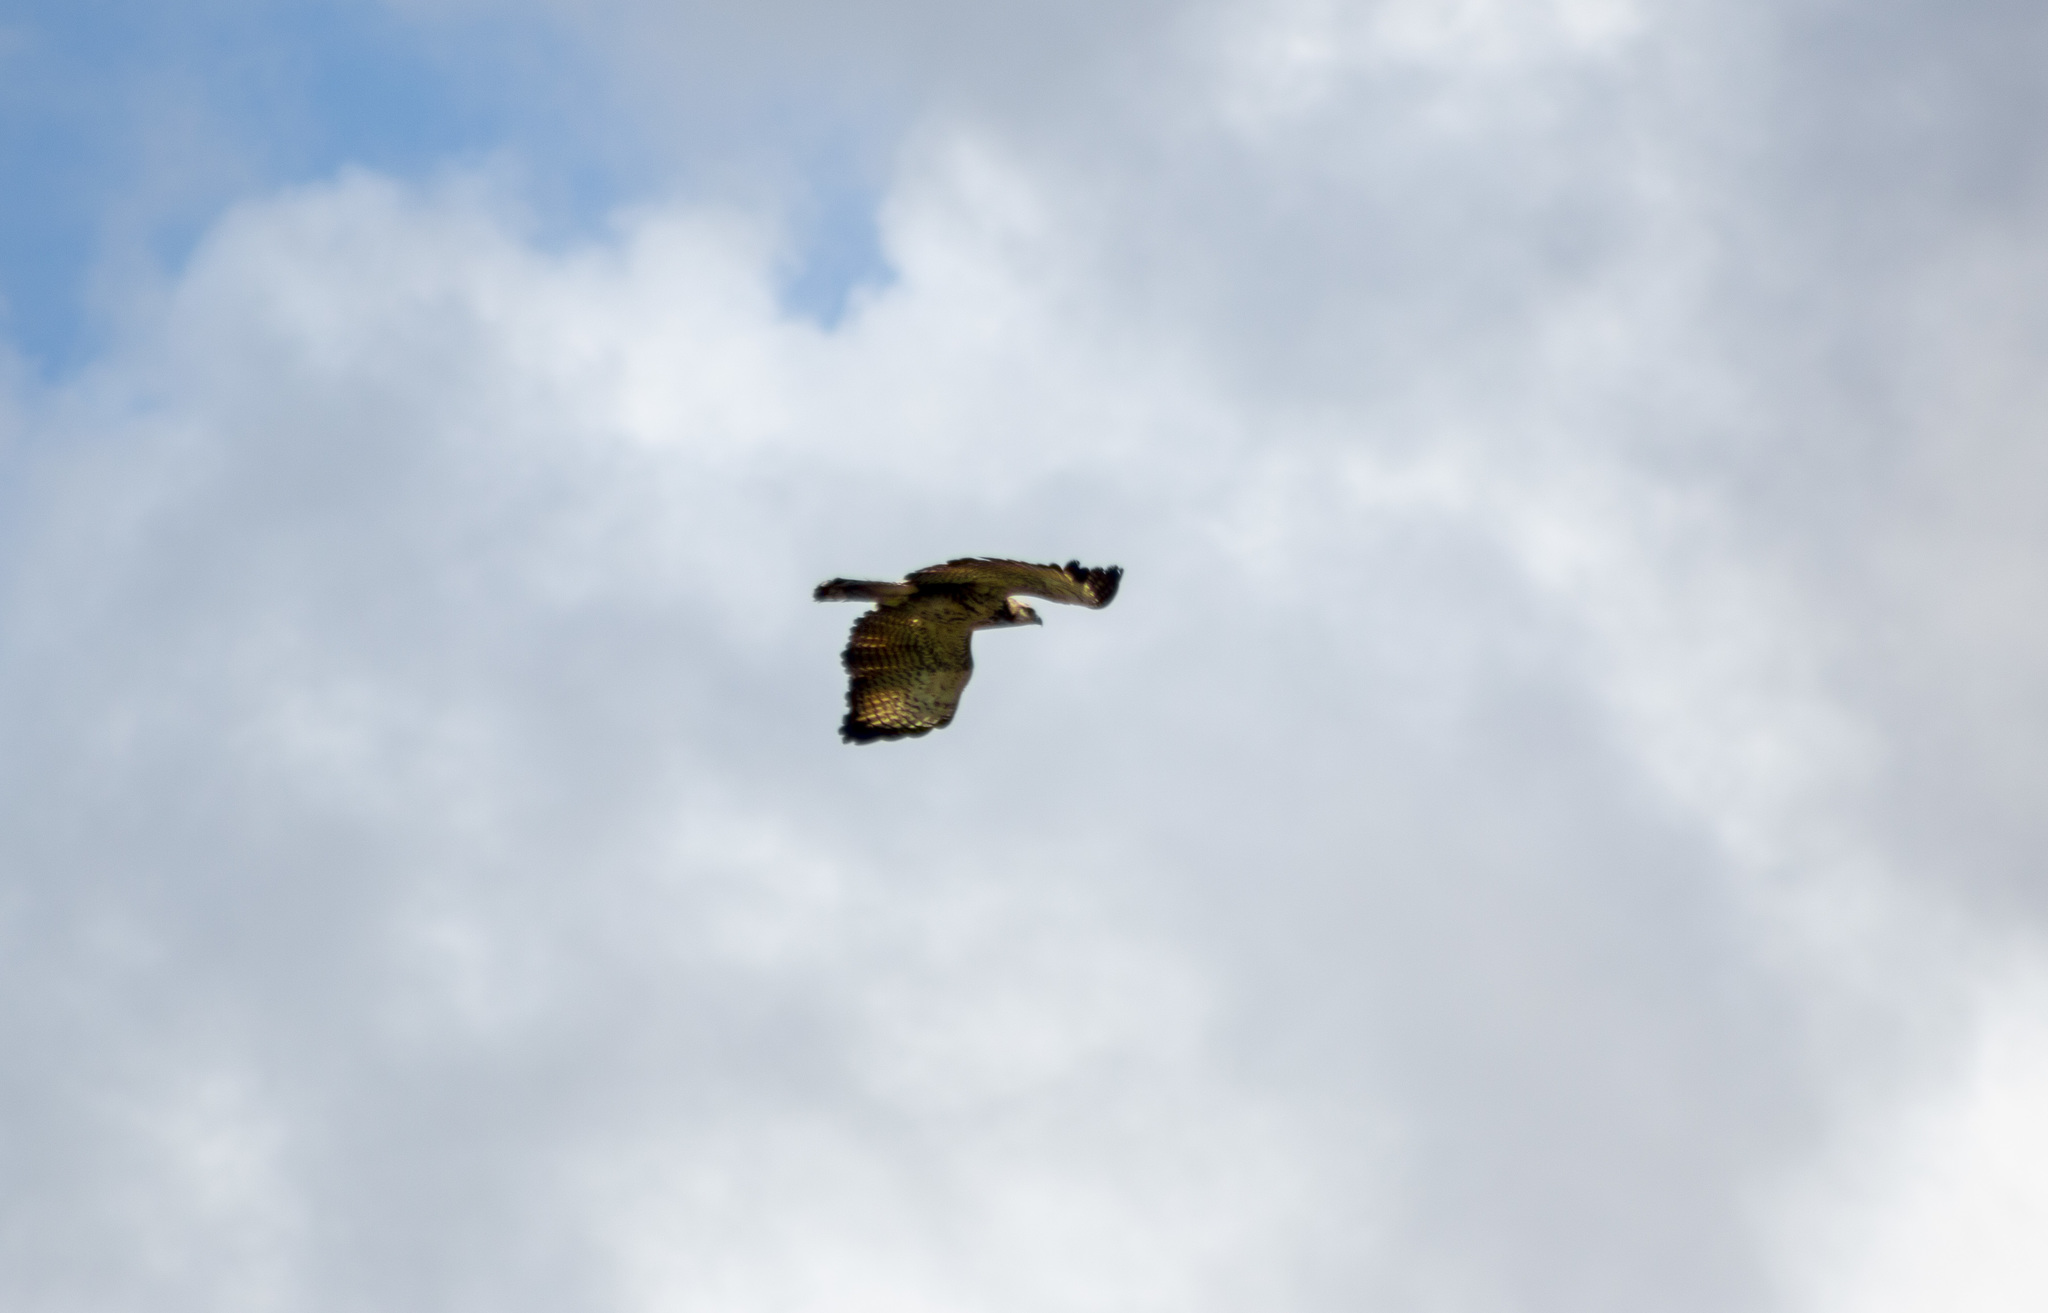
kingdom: Animalia
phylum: Chordata
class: Aves
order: Accipitriformes
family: Accipitridae
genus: Buteogallus
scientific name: Buteogallus meridionalis
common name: Savanna hawk
